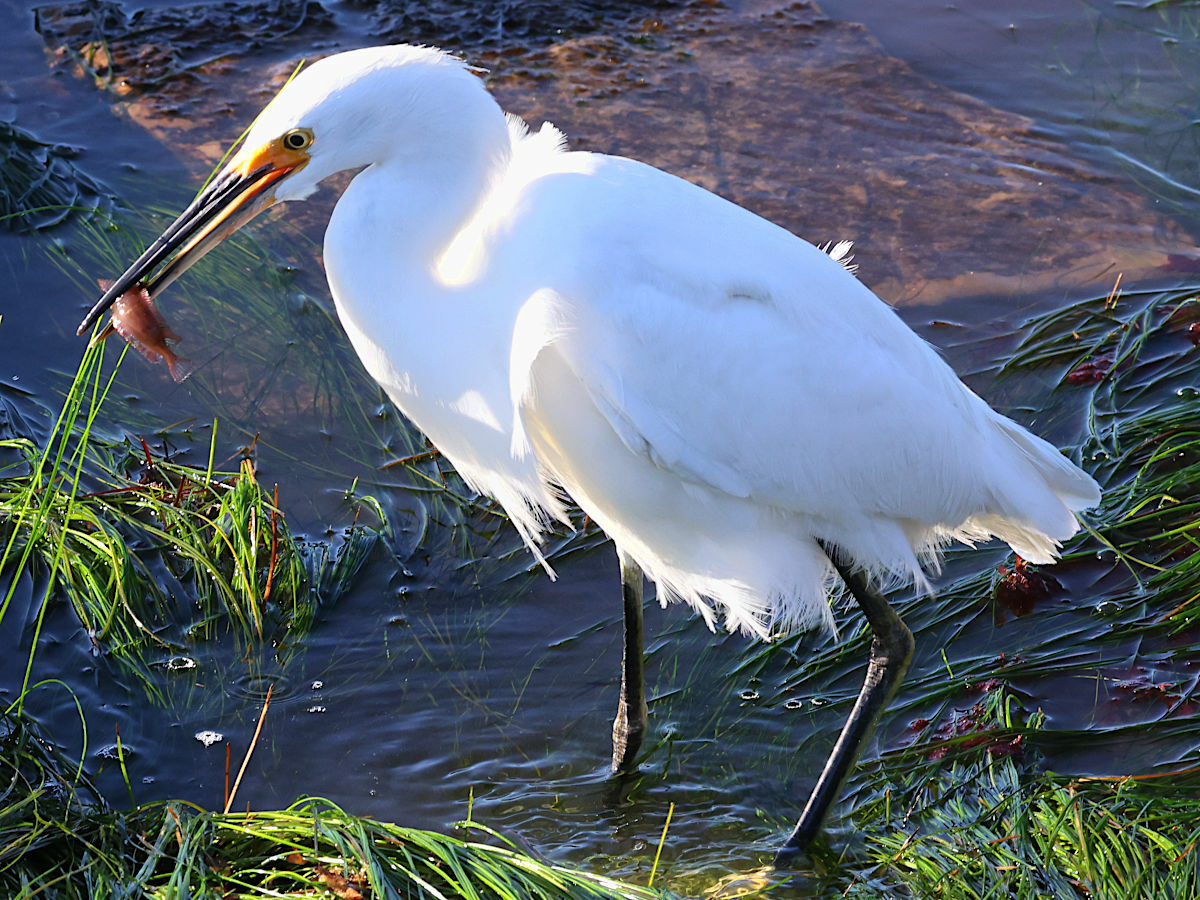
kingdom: Animalia
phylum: Chordata
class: Aves
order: Pelecaniformes
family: Ardeidae
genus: Egretta
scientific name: Egretta thula
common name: Snowy egret
